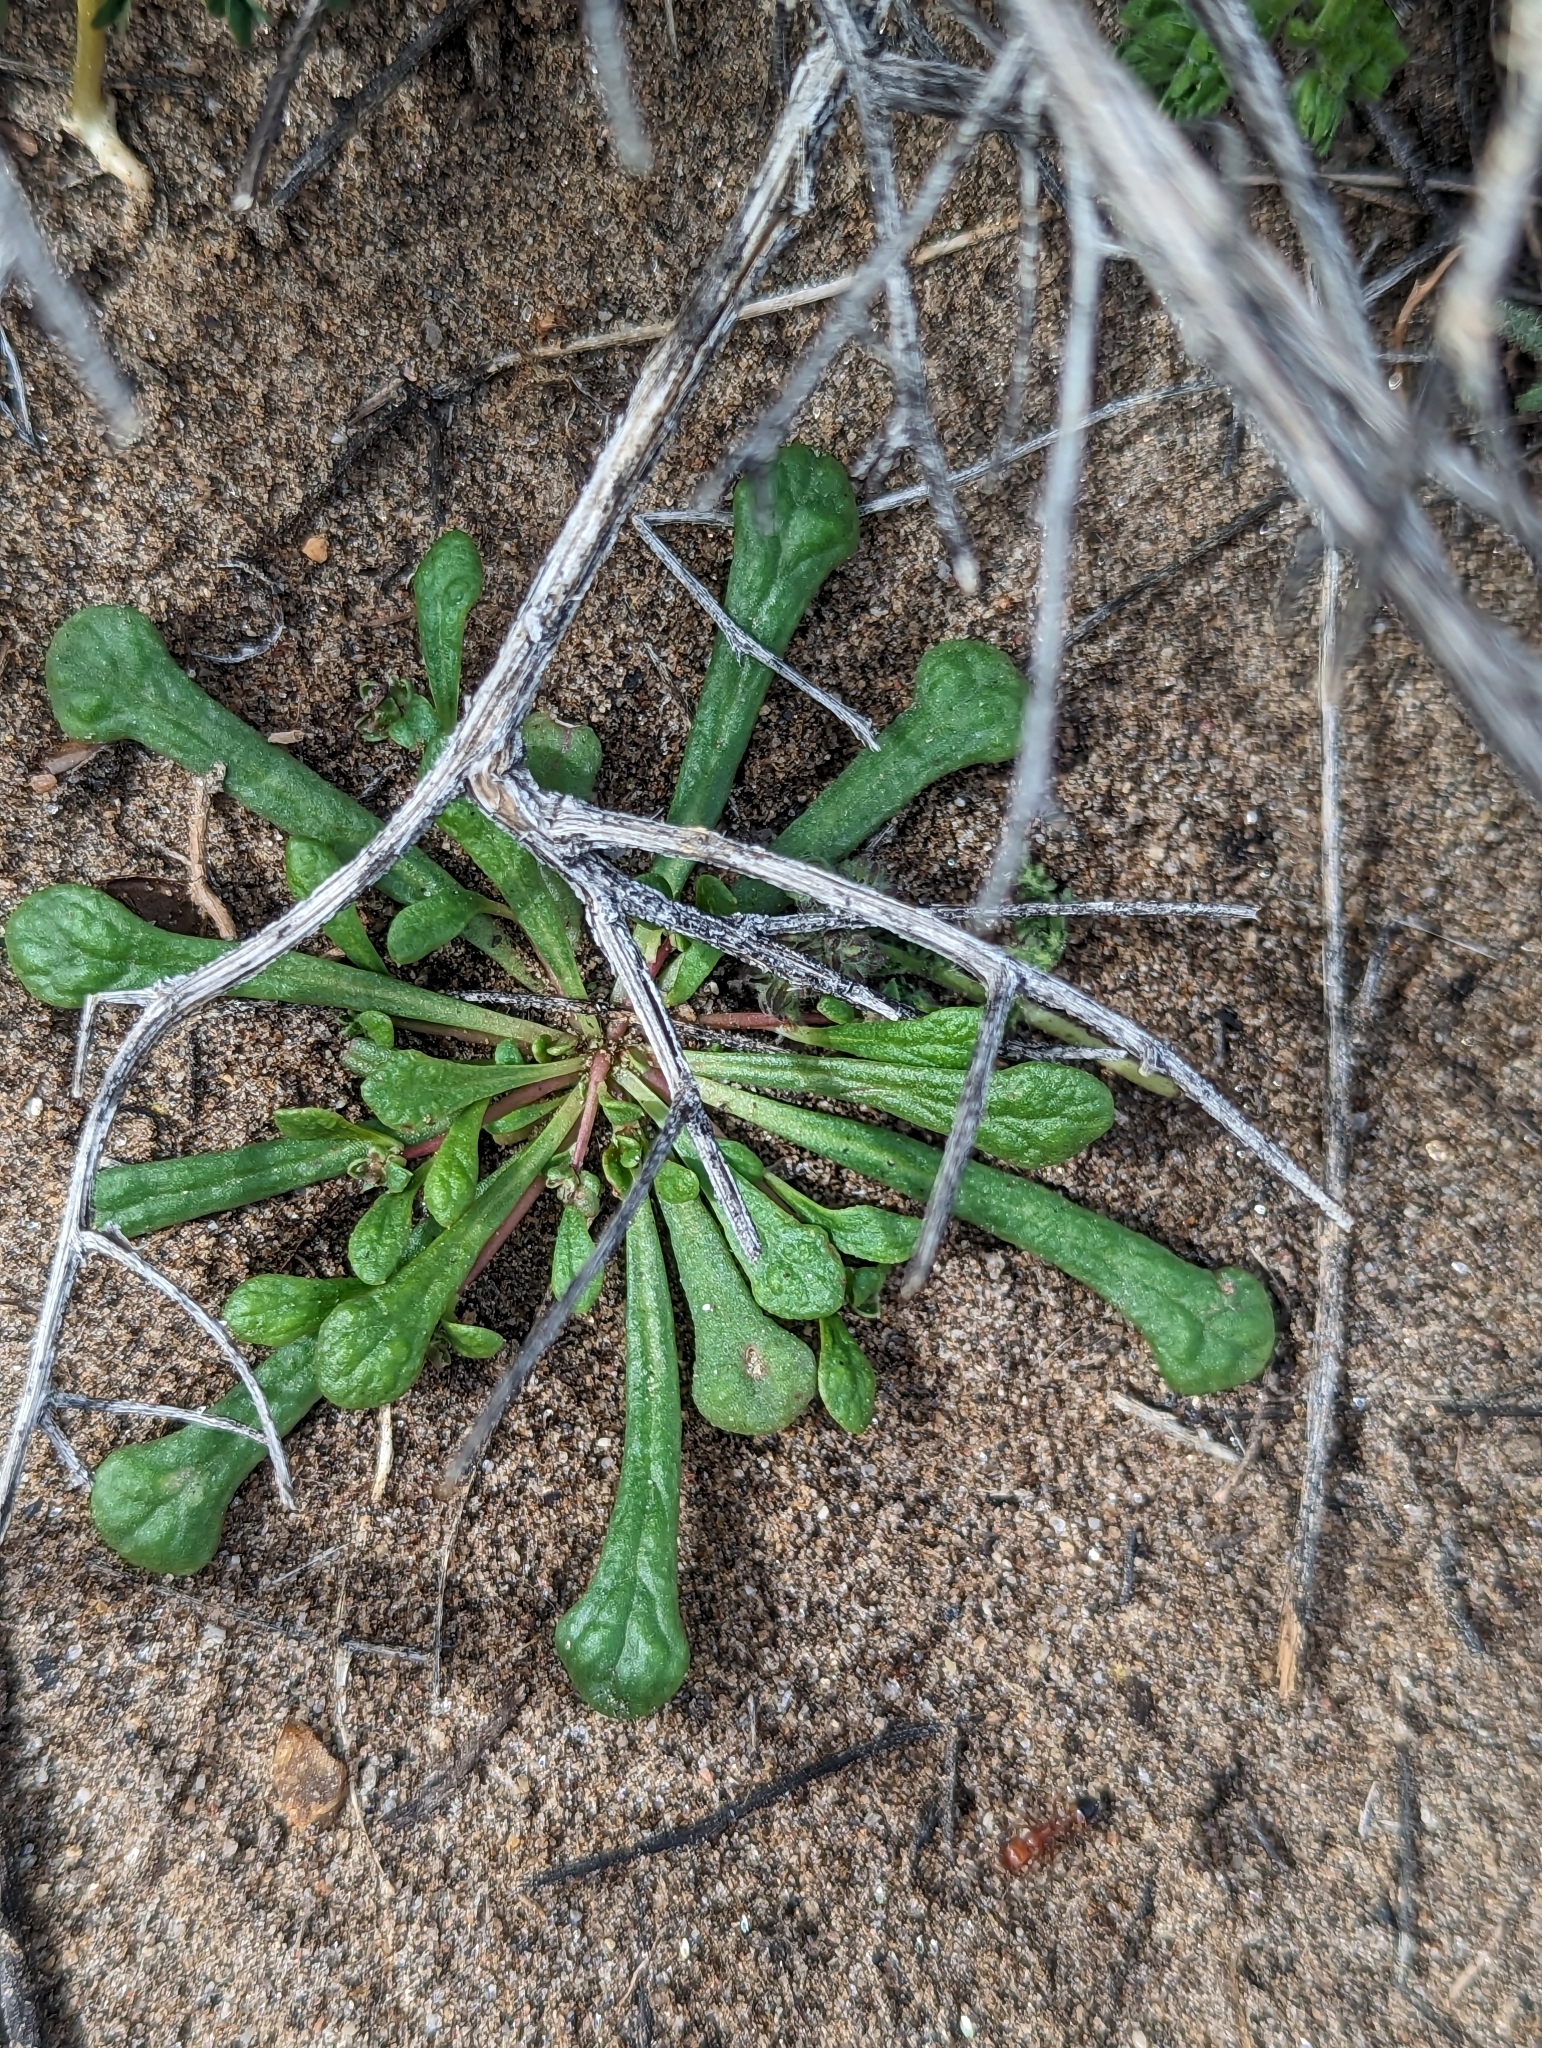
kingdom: Plantae
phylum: Tracheophyta
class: Magnoliopsida
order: Caryophyllales
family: Montiaceae
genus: Calyptridium
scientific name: Calyptridium monandrum
